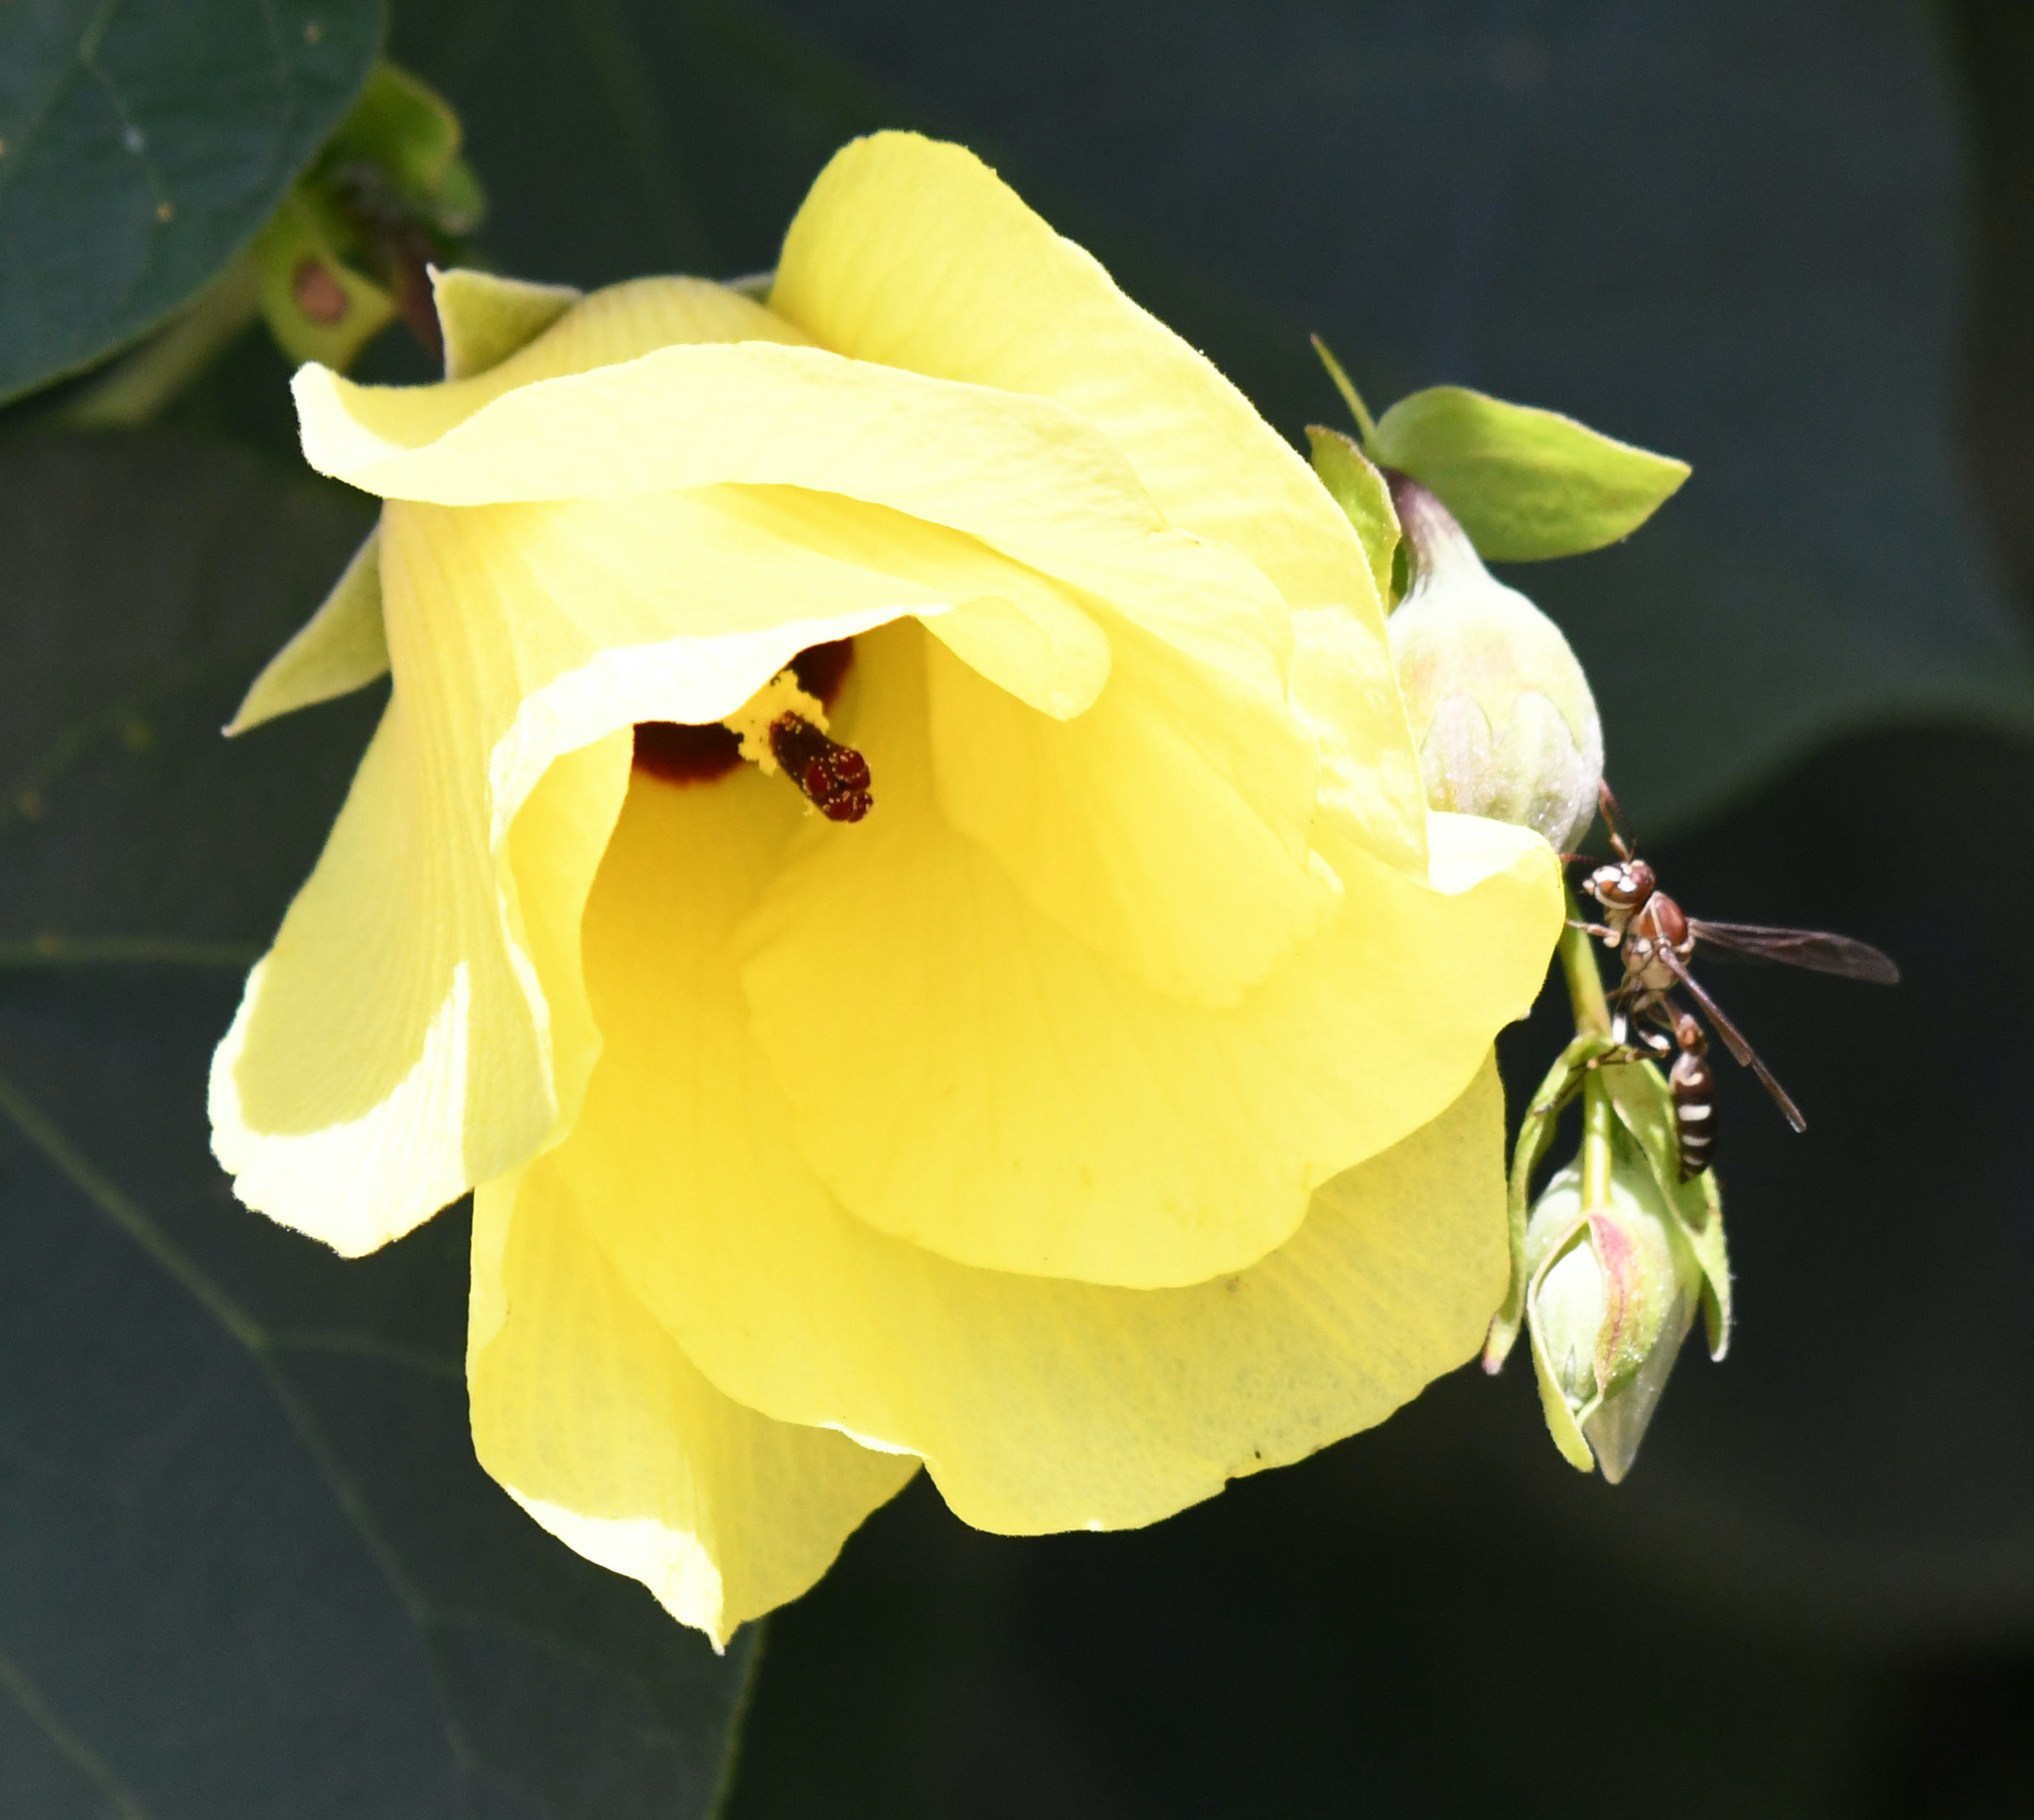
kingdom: Plantae
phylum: Tracheophyta
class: Magnoliopsida
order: Malvales
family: Malvaceae
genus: Talipariti
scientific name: Talipariti tiliaceum
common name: Sea hibiscus
